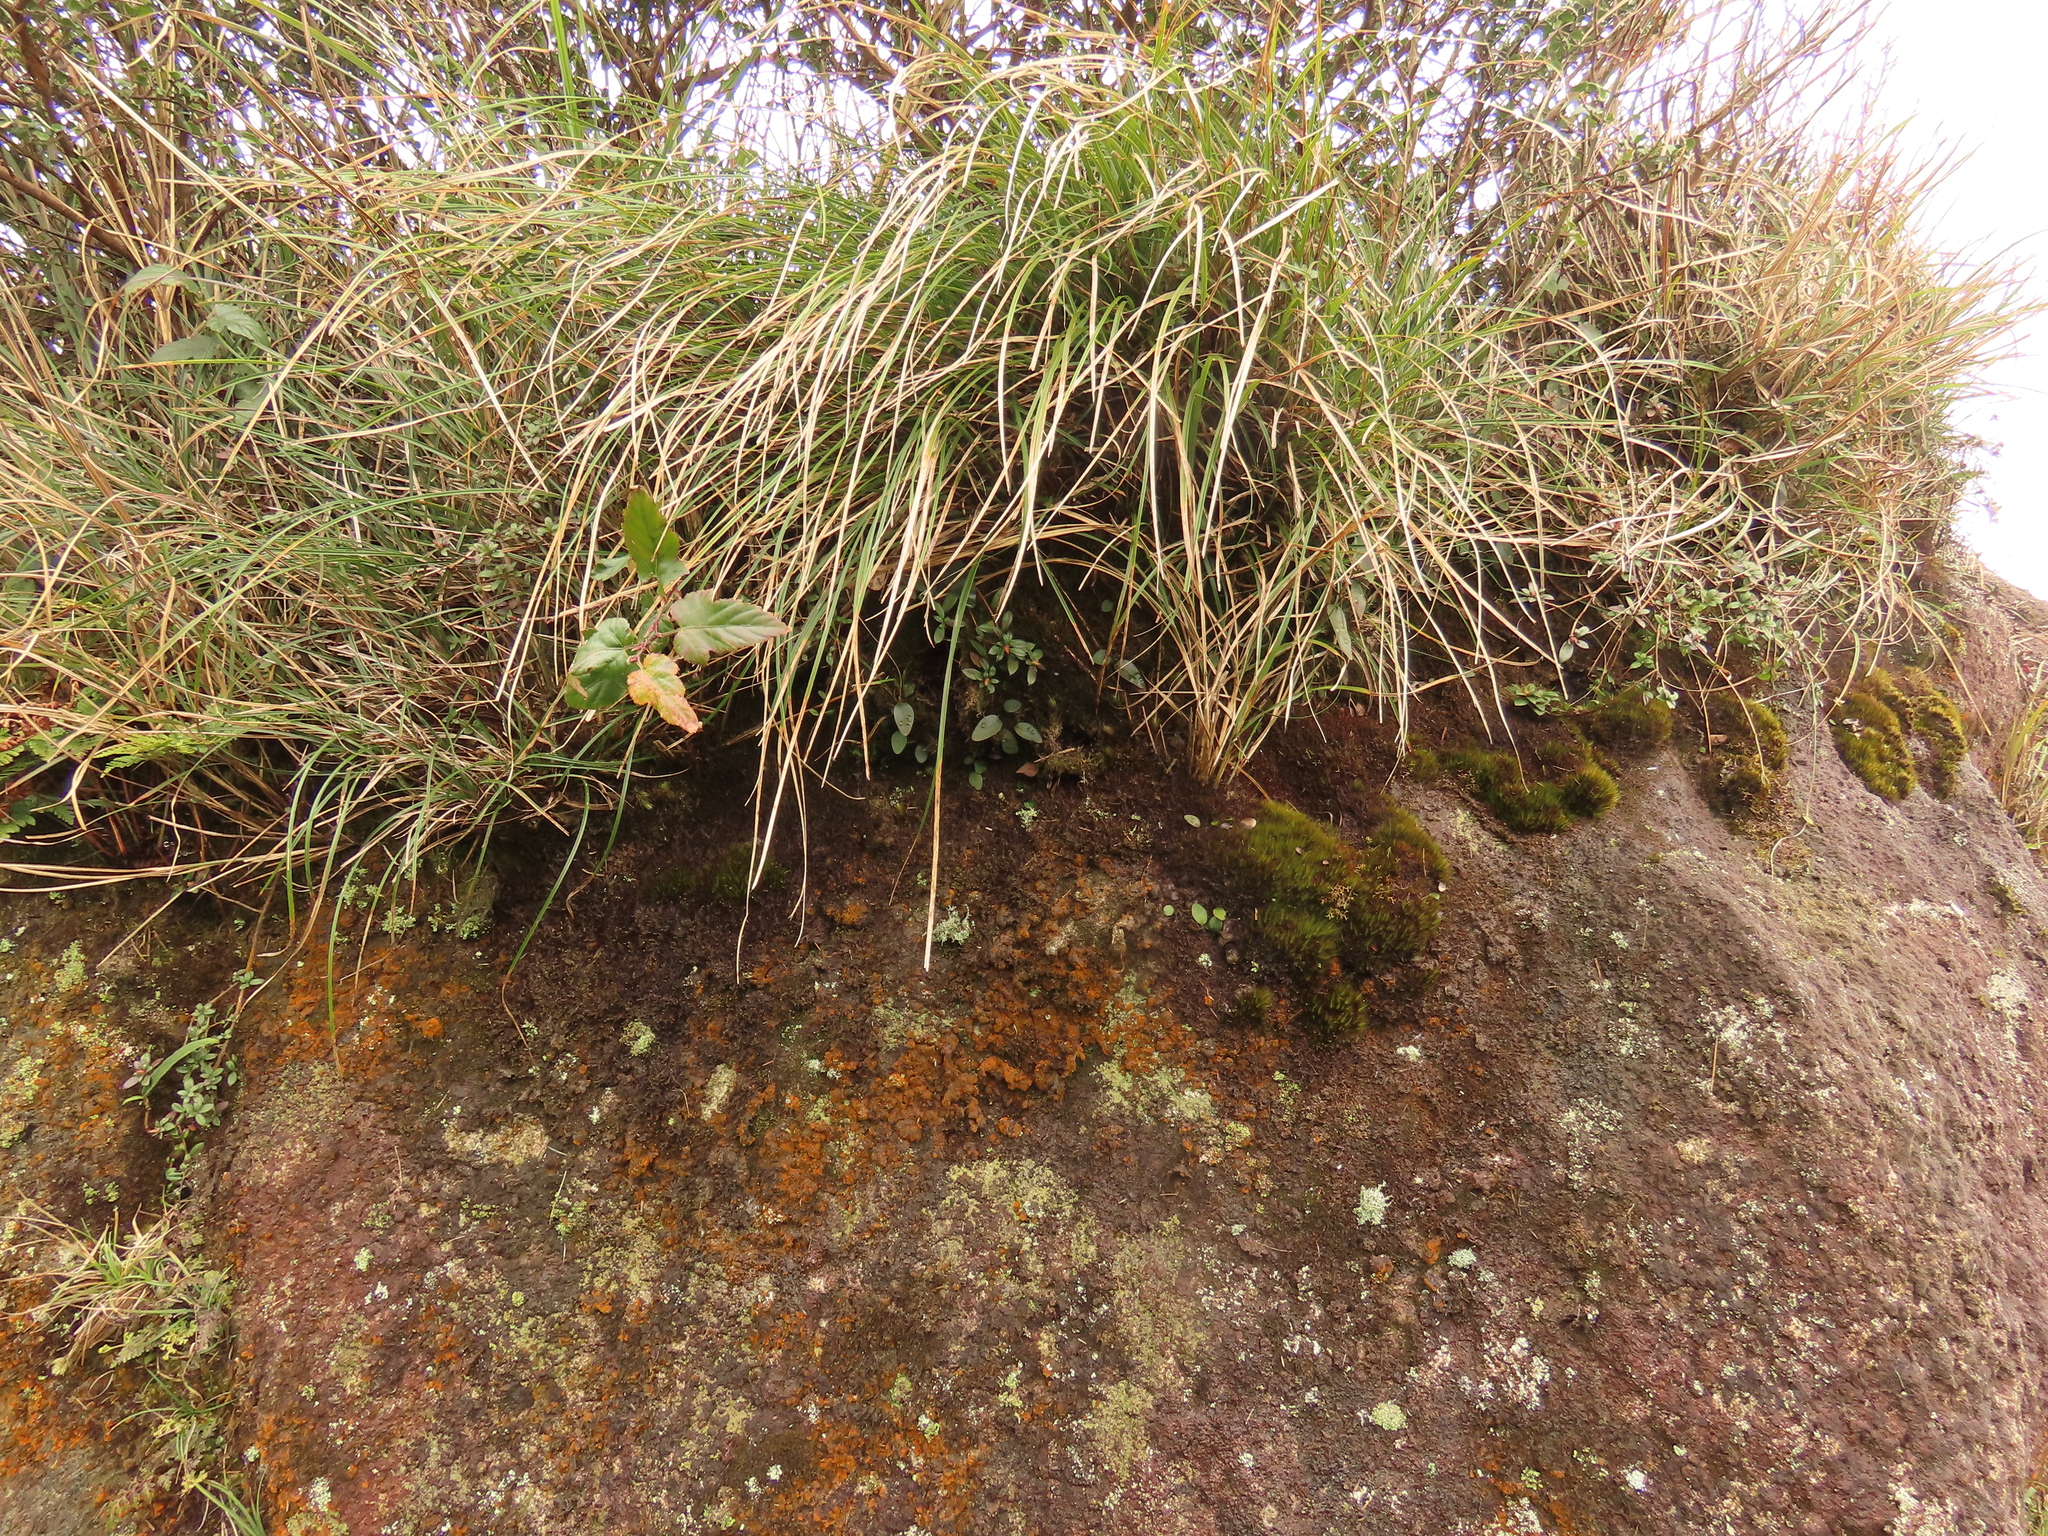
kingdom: Plantae
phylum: Tracheophyta
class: Polypodiopsida
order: Polypodiales
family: Polypodiaceae
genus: Selliguea
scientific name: Selliguea hastata
